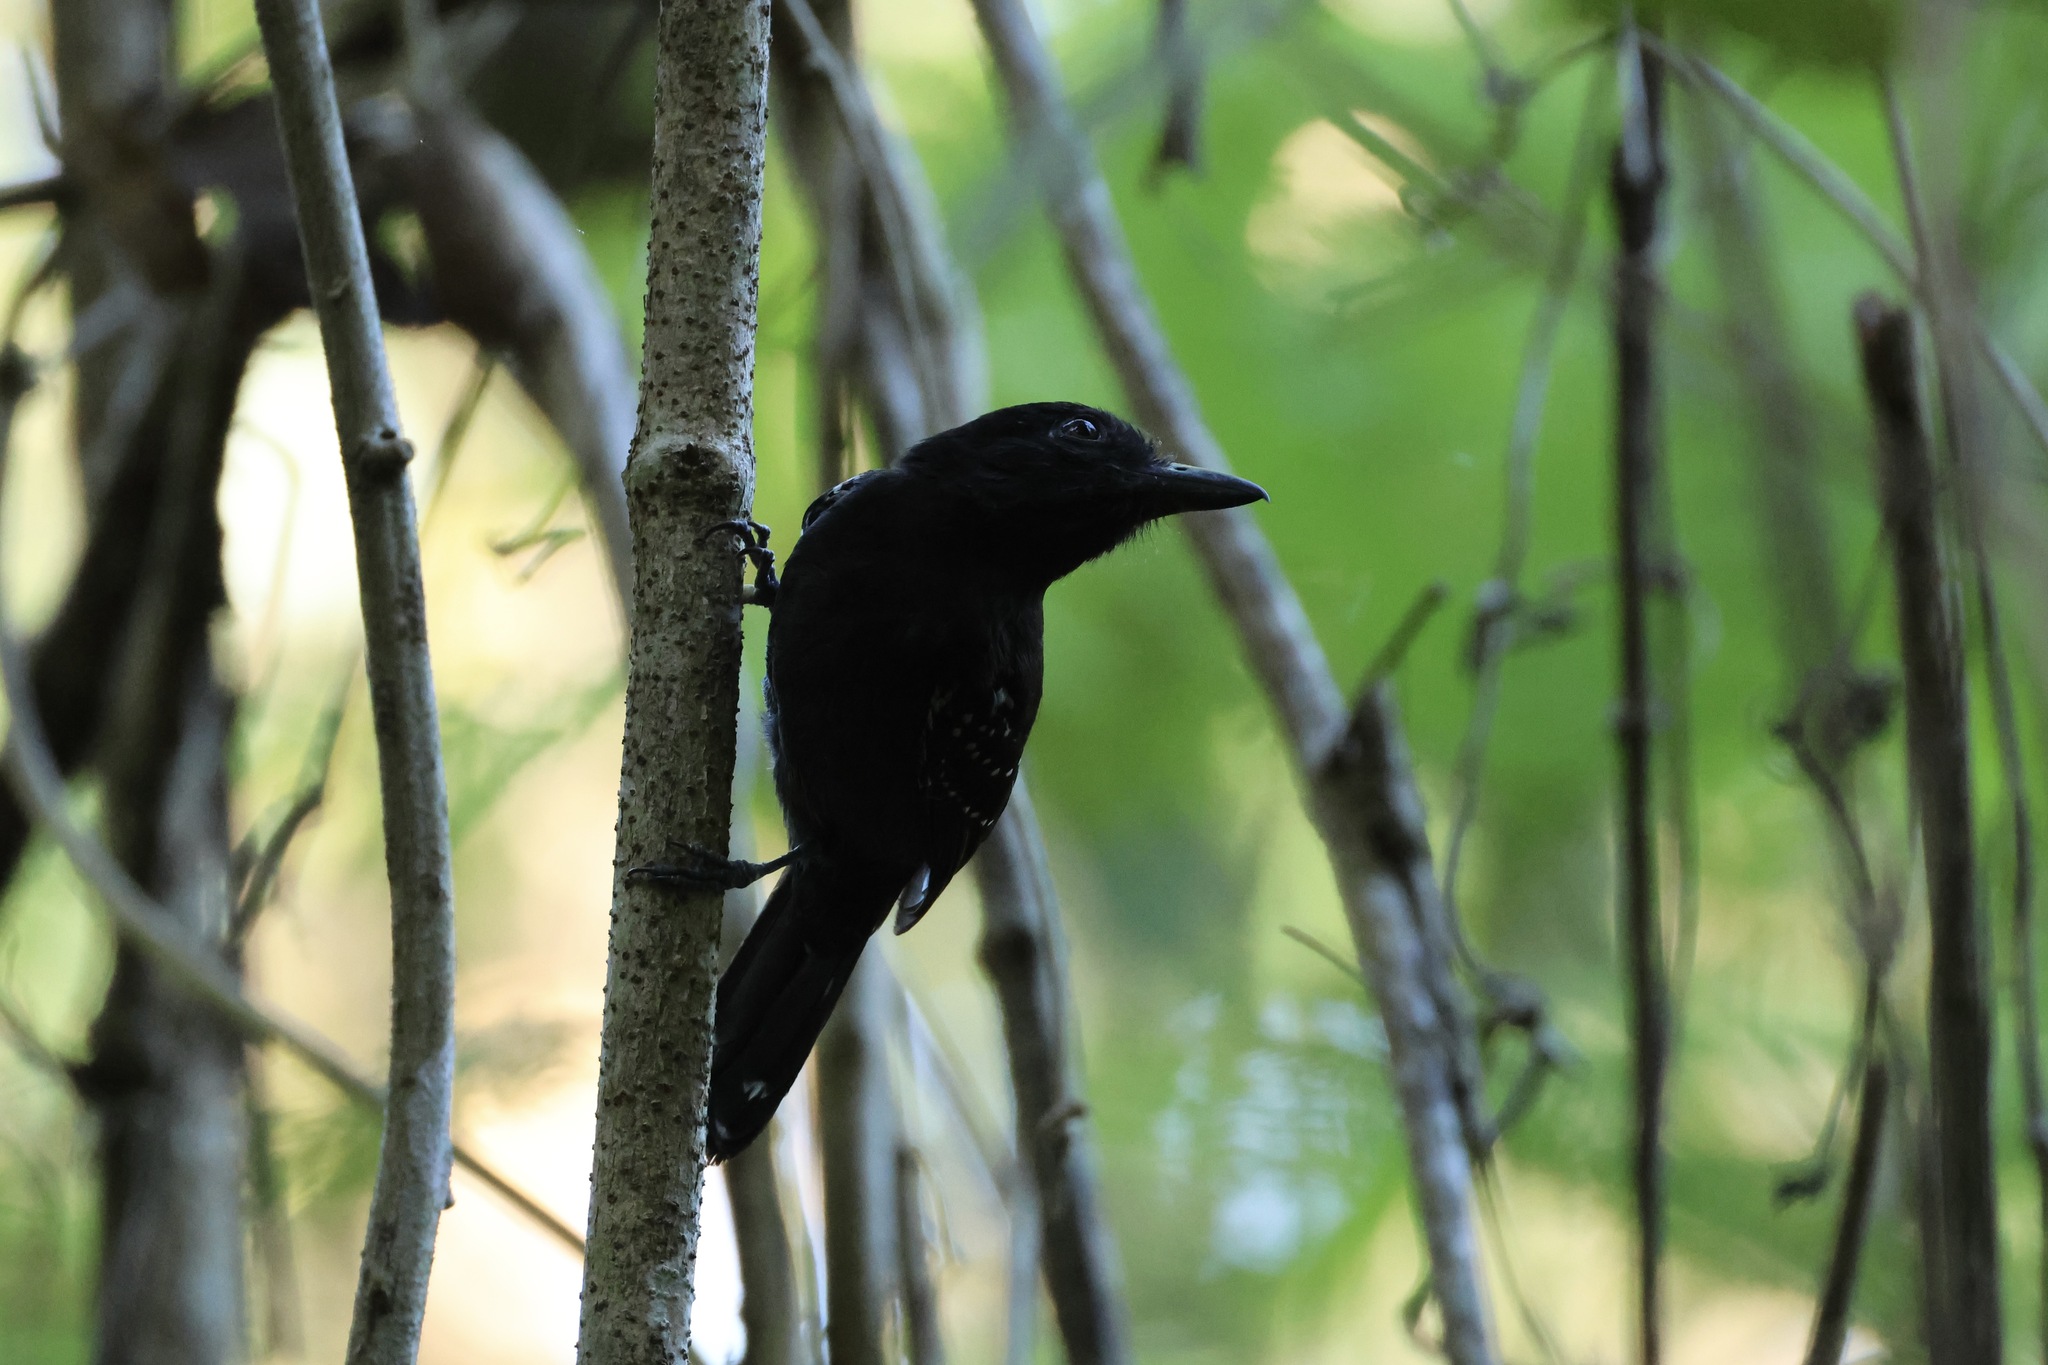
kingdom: Animalia
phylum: Chordata
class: Aves
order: Passeriformes
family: Thamnophilidae
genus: Thamnophilus
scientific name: Thamnophilus bridgesi
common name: Black-hooded antshrike
